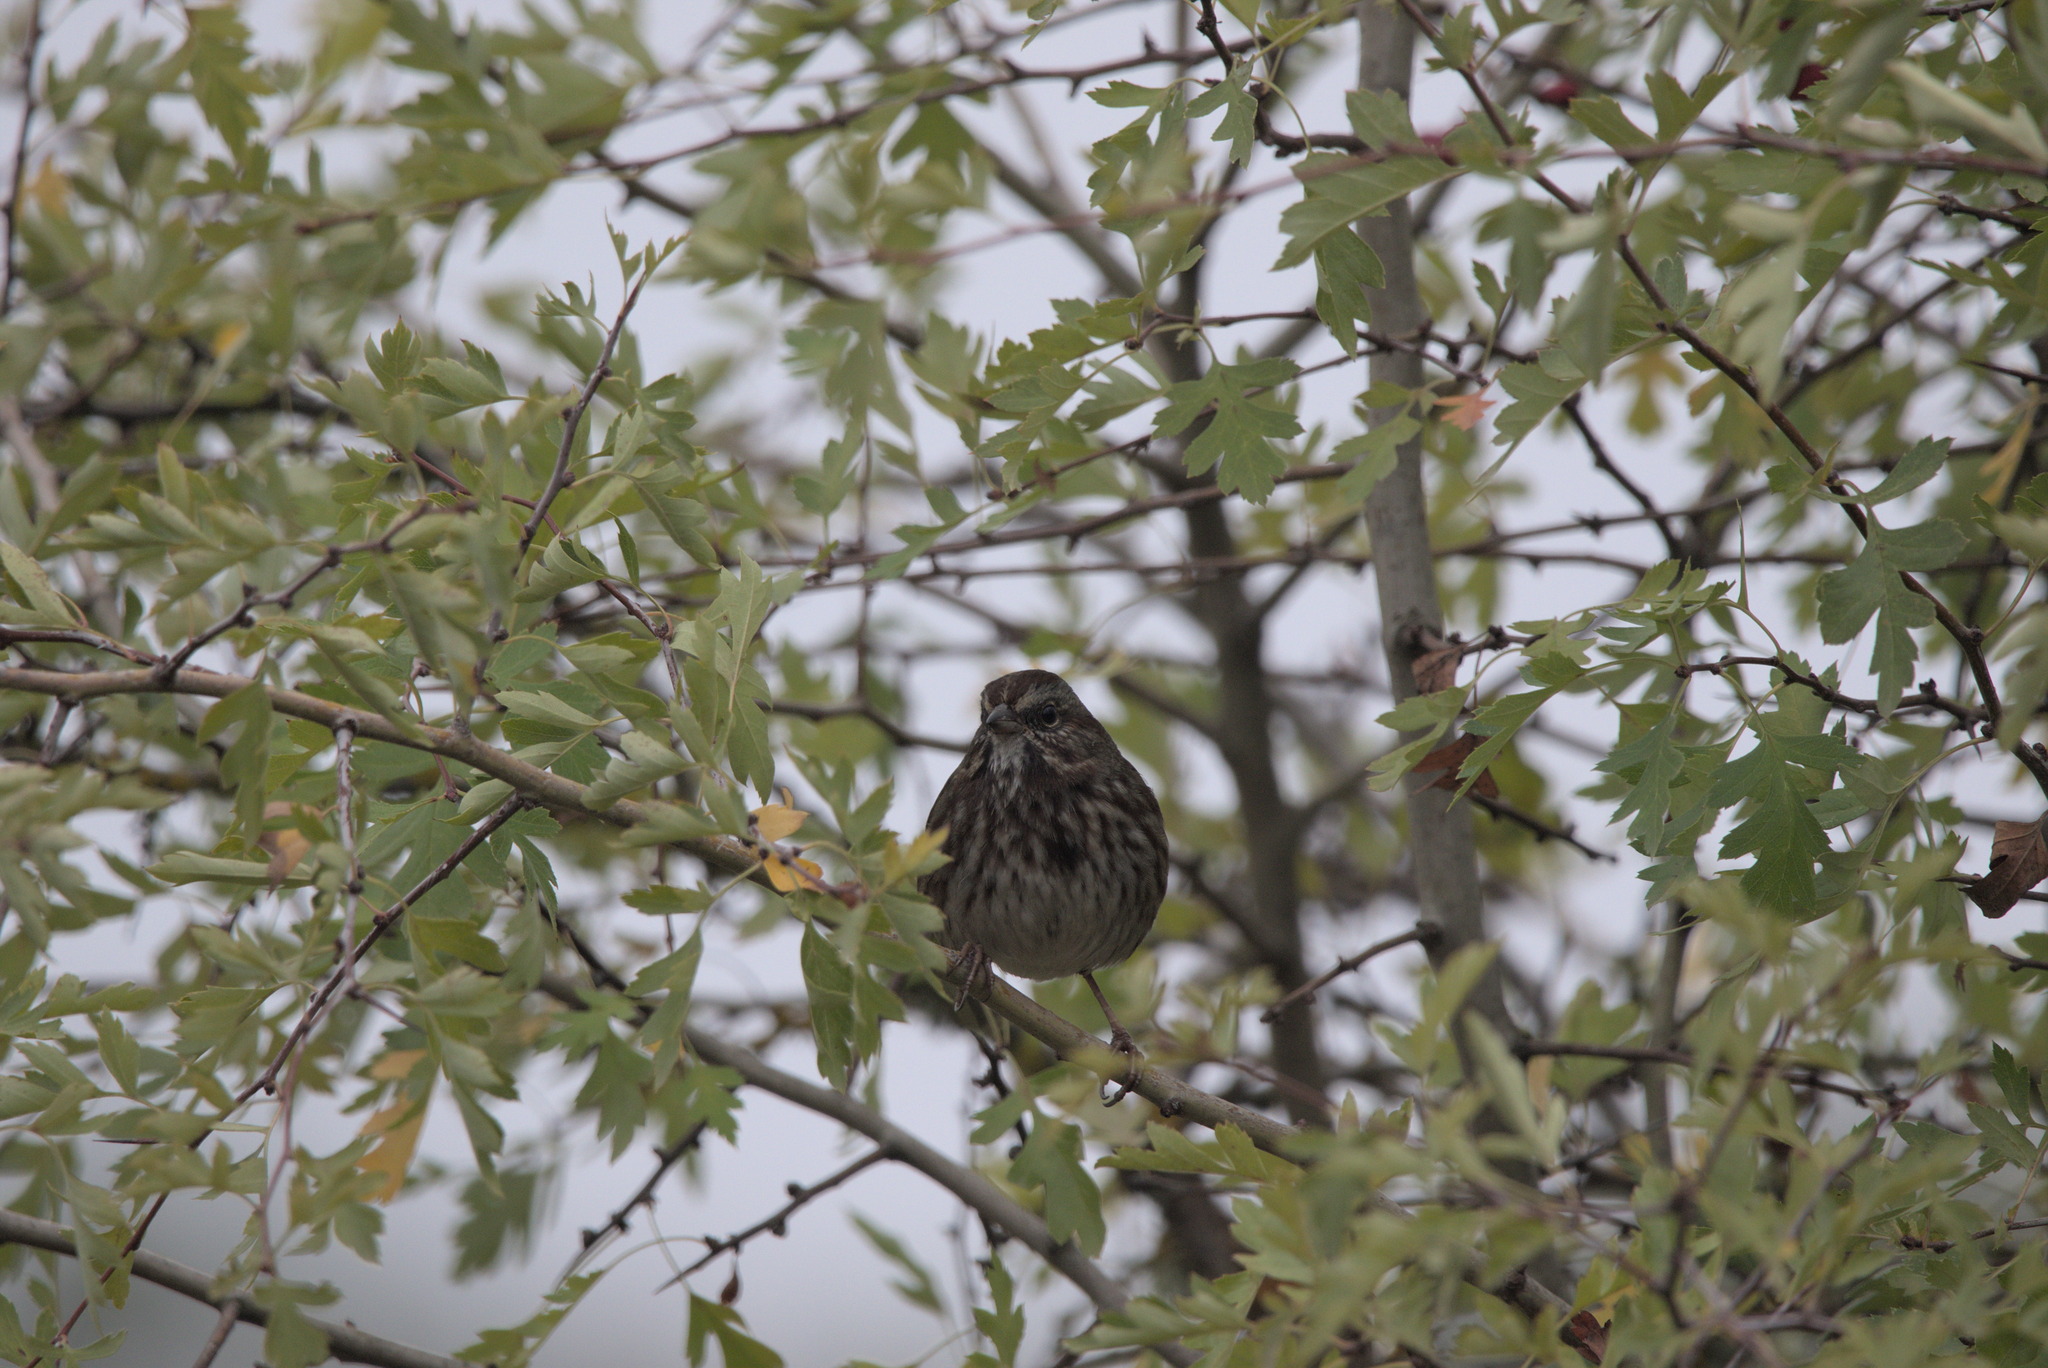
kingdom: Animalia
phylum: Chordata
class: Aves
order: Passeriformes
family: Passerellidae
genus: Melospiza
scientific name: Melospiza melodia
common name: Song sparrow
